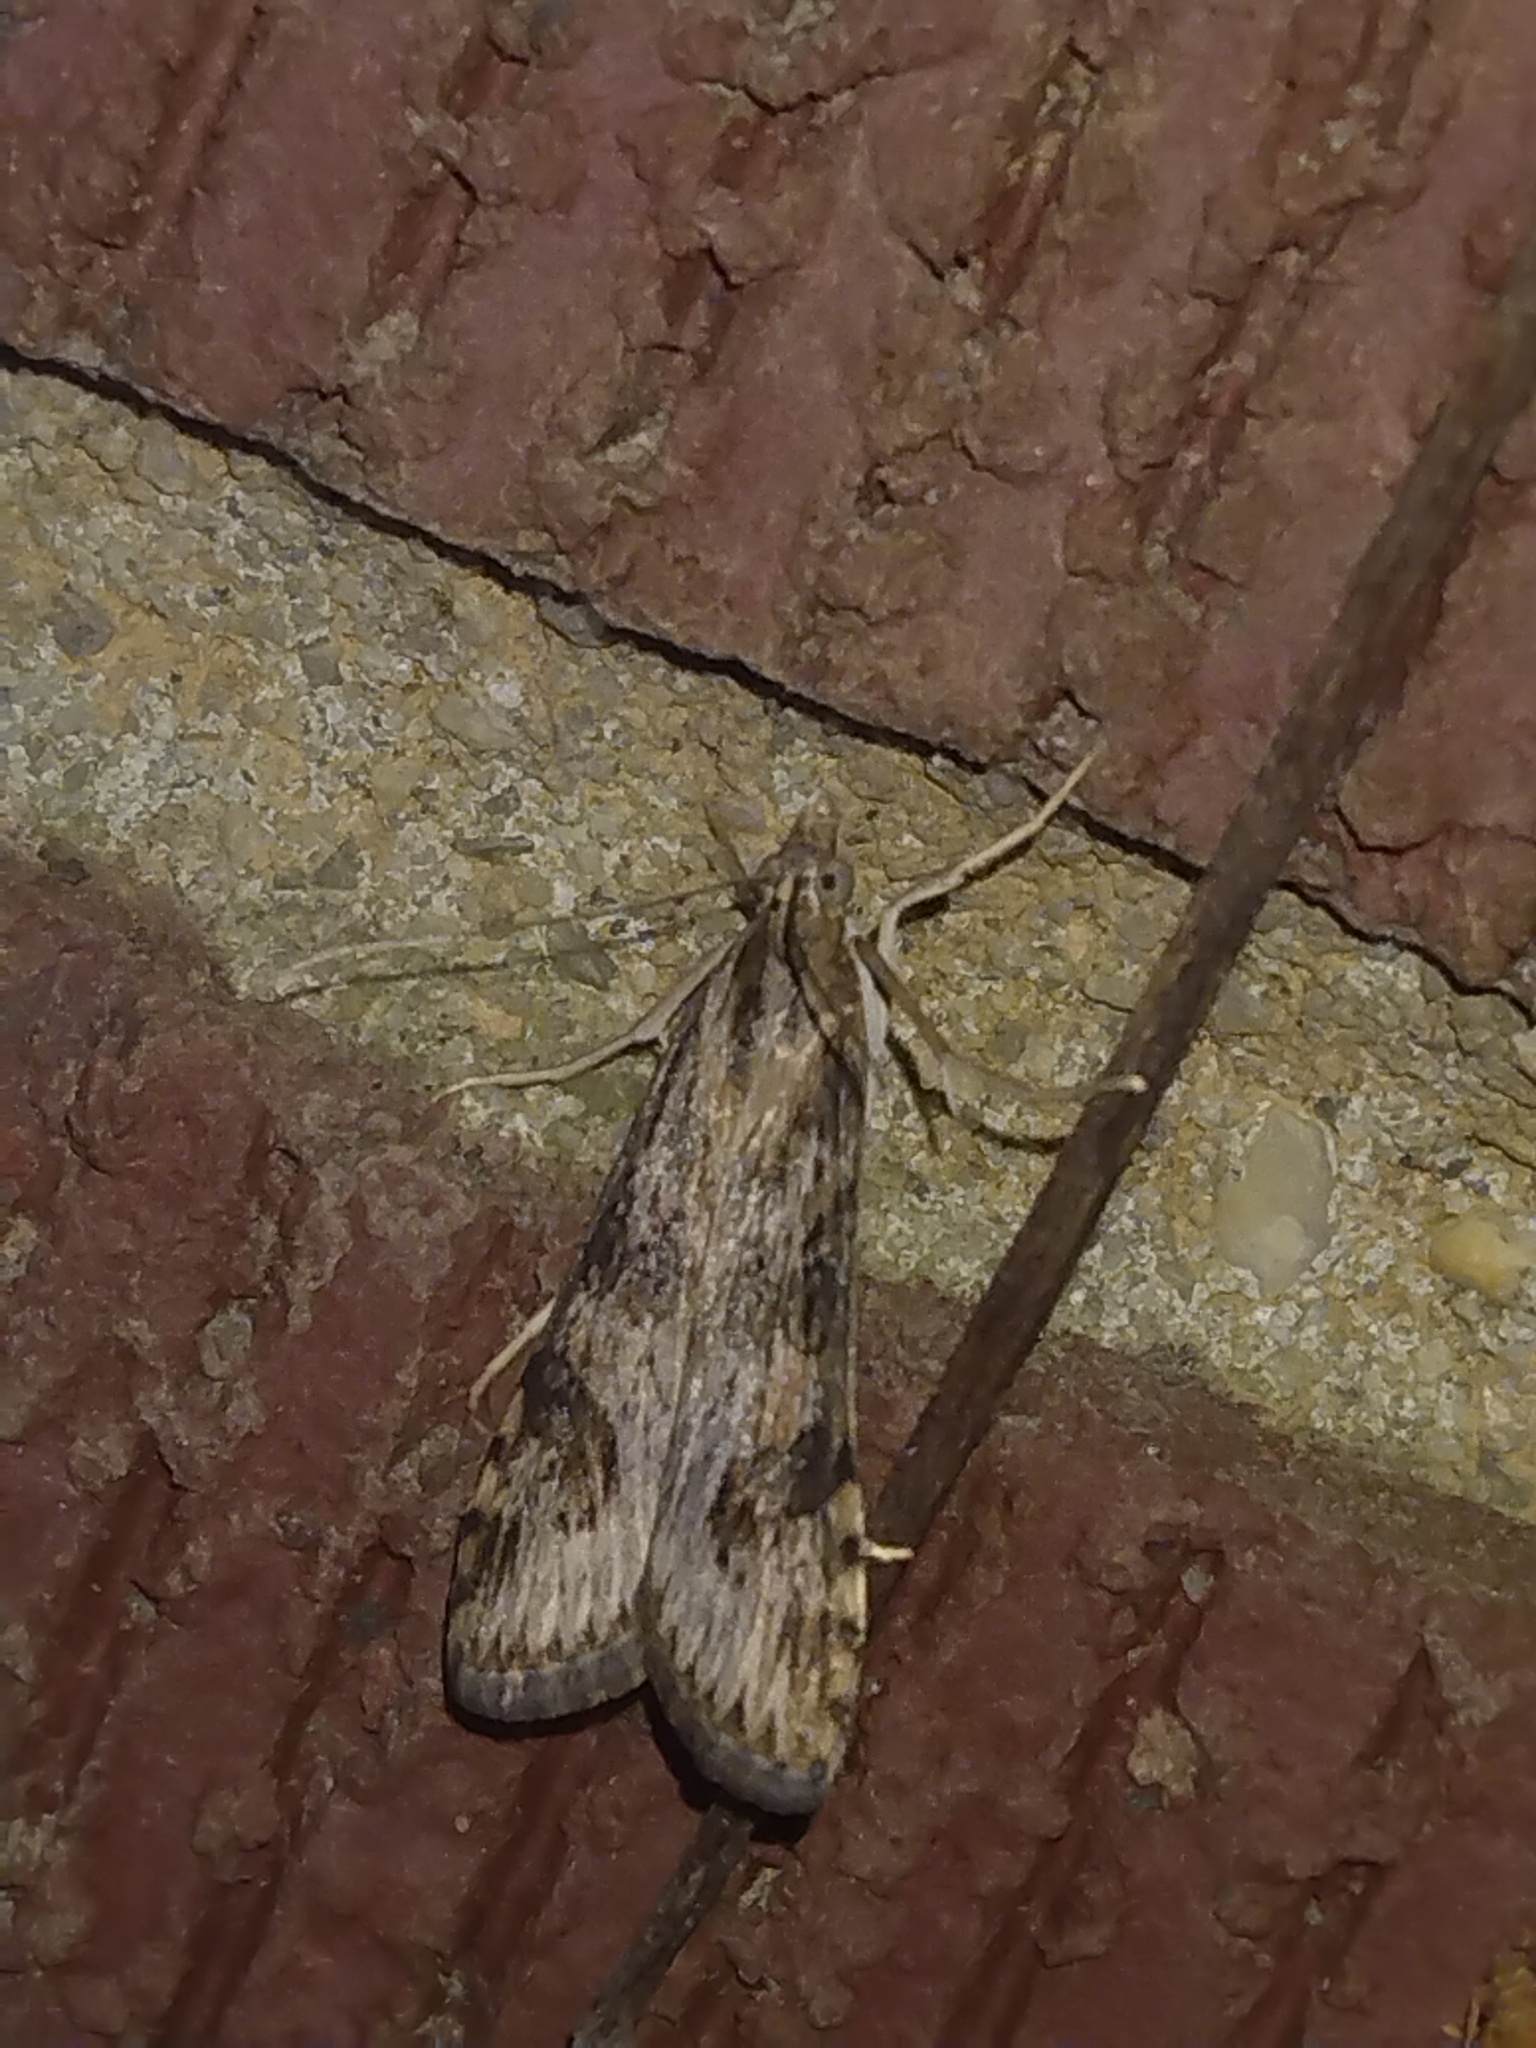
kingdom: Animalia
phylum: Arthropoda
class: Insecta
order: Lepidoptera
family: Crambidae
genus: Nomophila
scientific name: Nomophila nearctica
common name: American rush veneer
